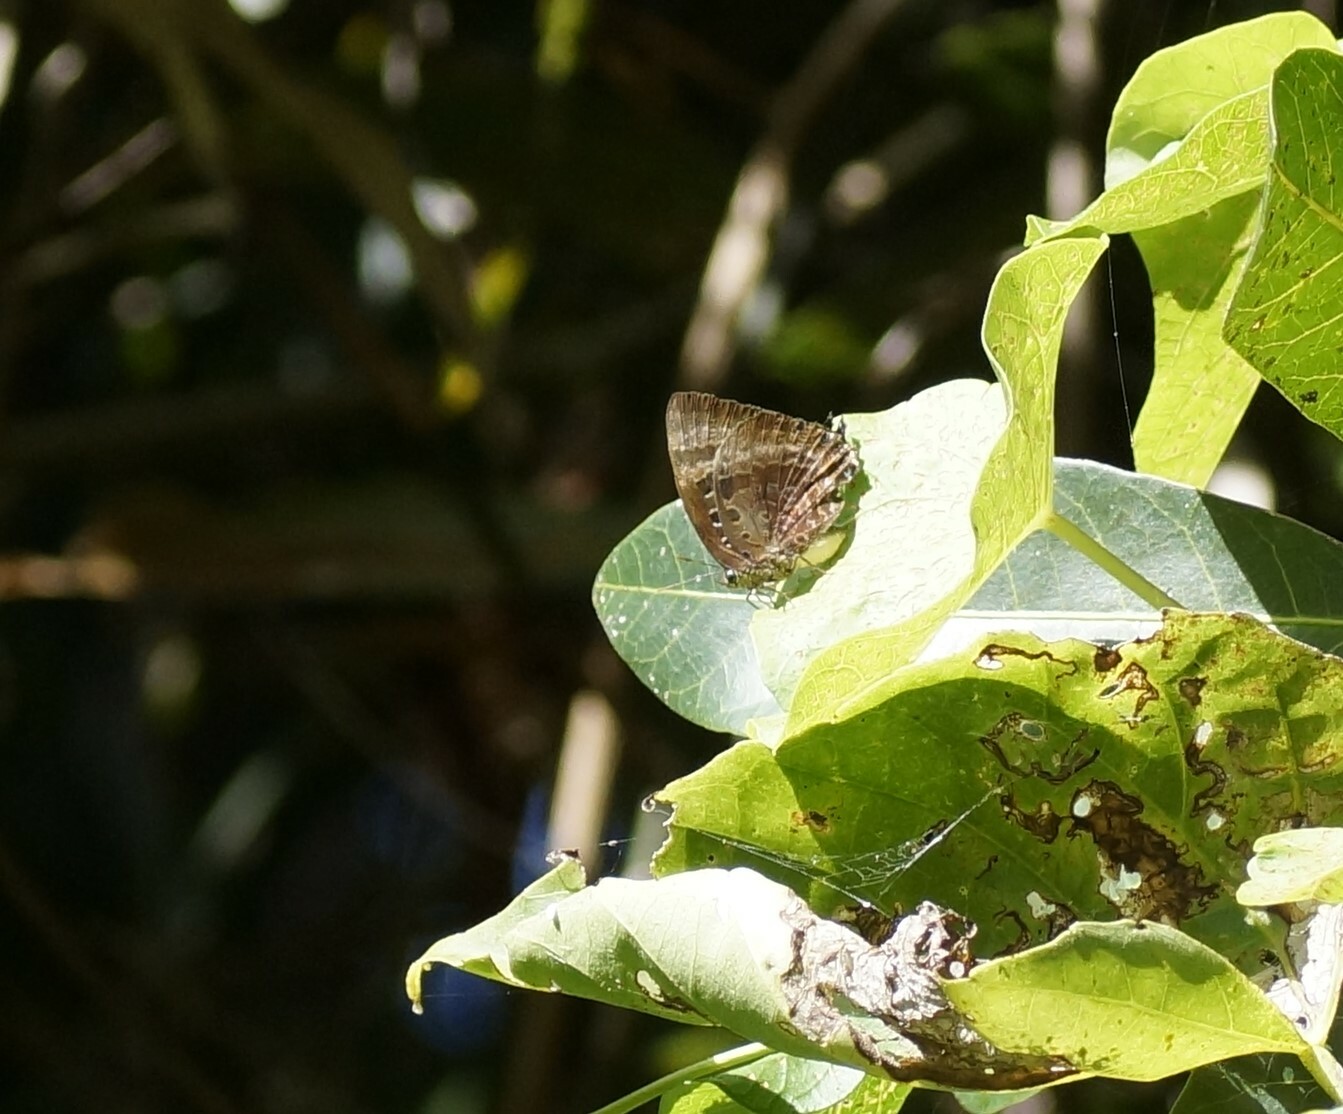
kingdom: Animalia
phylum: Arthropoda
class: Insecta
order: Lepidoptera
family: Lycaenidae
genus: Arhopala
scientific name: Arhopala micale
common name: Shining oak-blue
